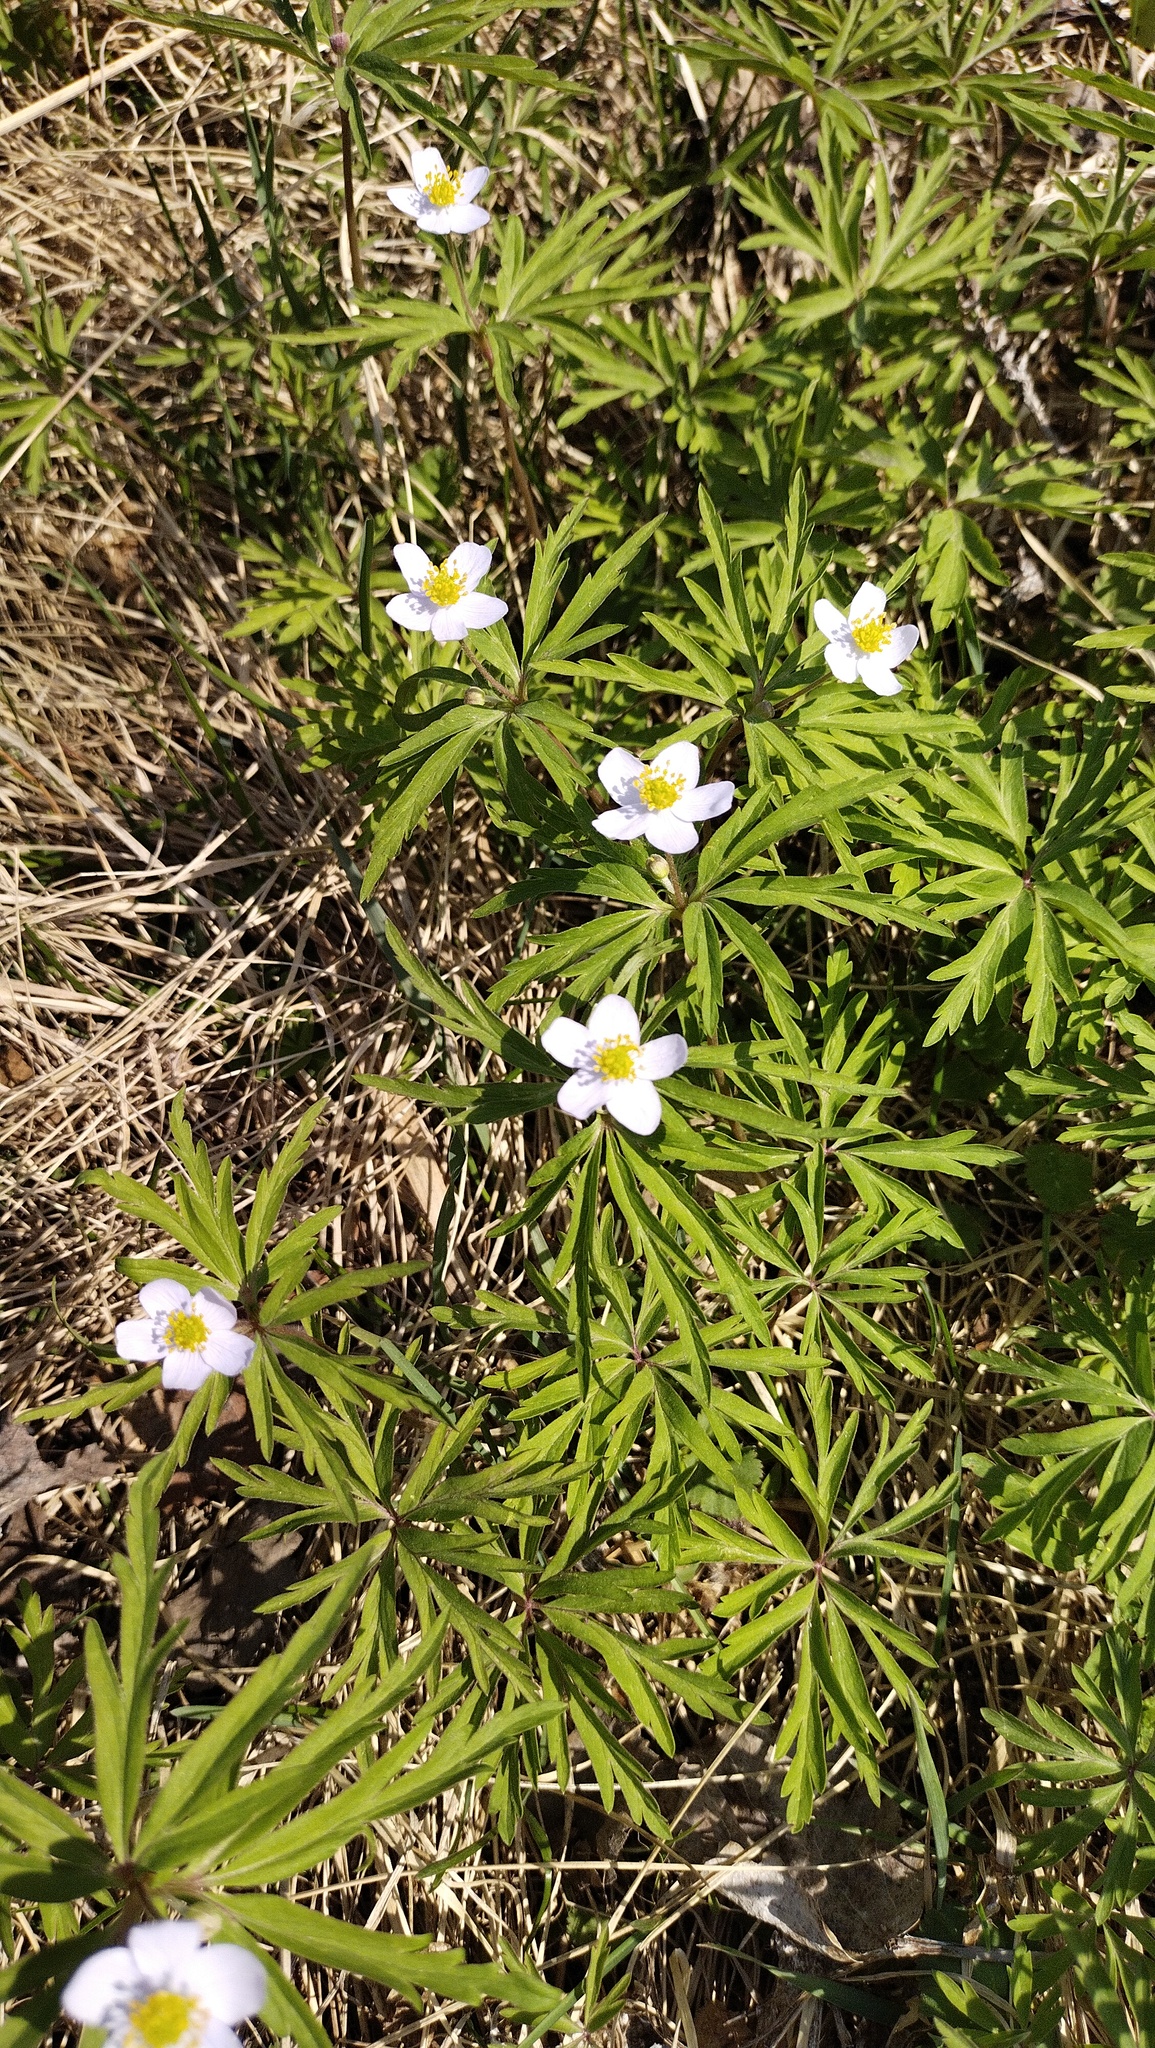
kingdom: Plantae
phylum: Tracheophyta
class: Magnoliopsida
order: Ranunculales
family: Ranunculaceae
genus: Anemone
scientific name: Anemone caerulea
